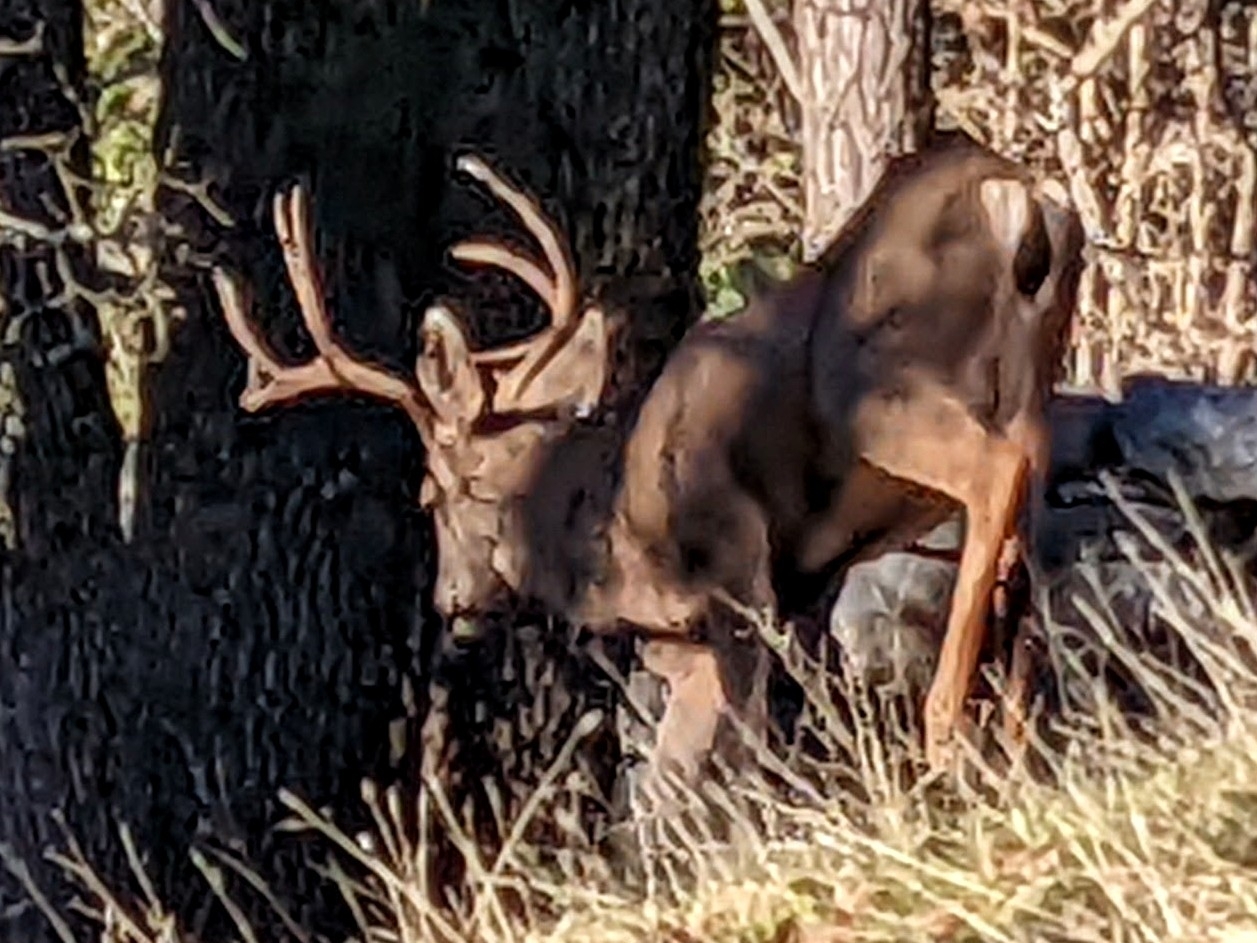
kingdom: Animalia
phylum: Chordata
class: Mammalia
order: Artiodactyla
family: Cervidae
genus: Odocoileus
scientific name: Odocoileus hemionus
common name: Mule deer
